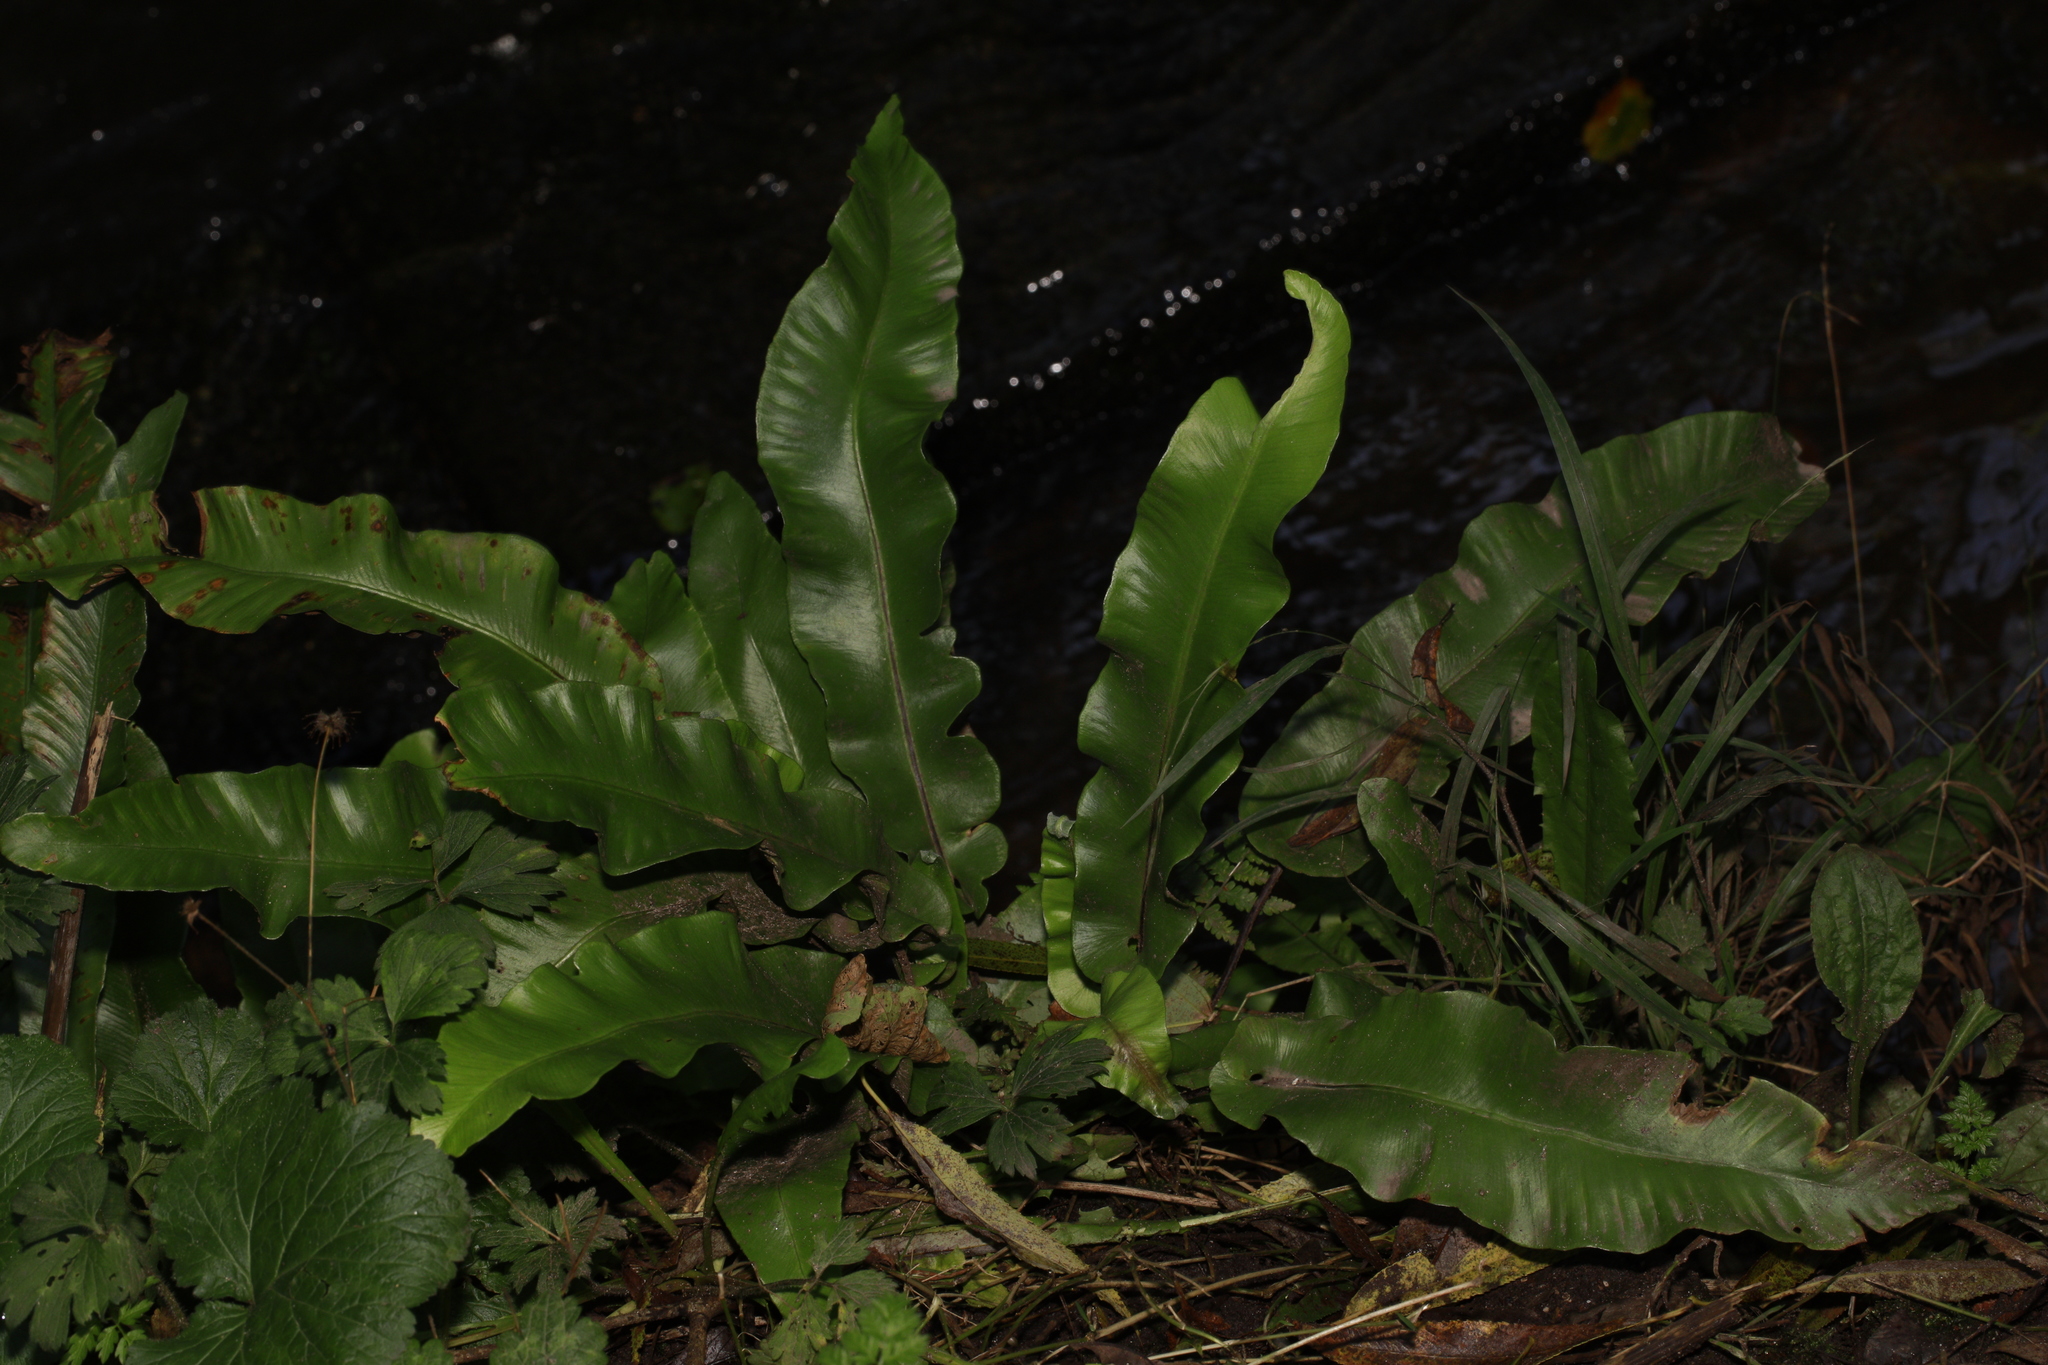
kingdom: Plantae
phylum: Tracheophyta
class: Polypodiopsida
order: Polypodiales
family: Aspleniaceae
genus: Asplenium
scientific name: Asplenium scolopendrium
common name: Hart's-tongue fern
